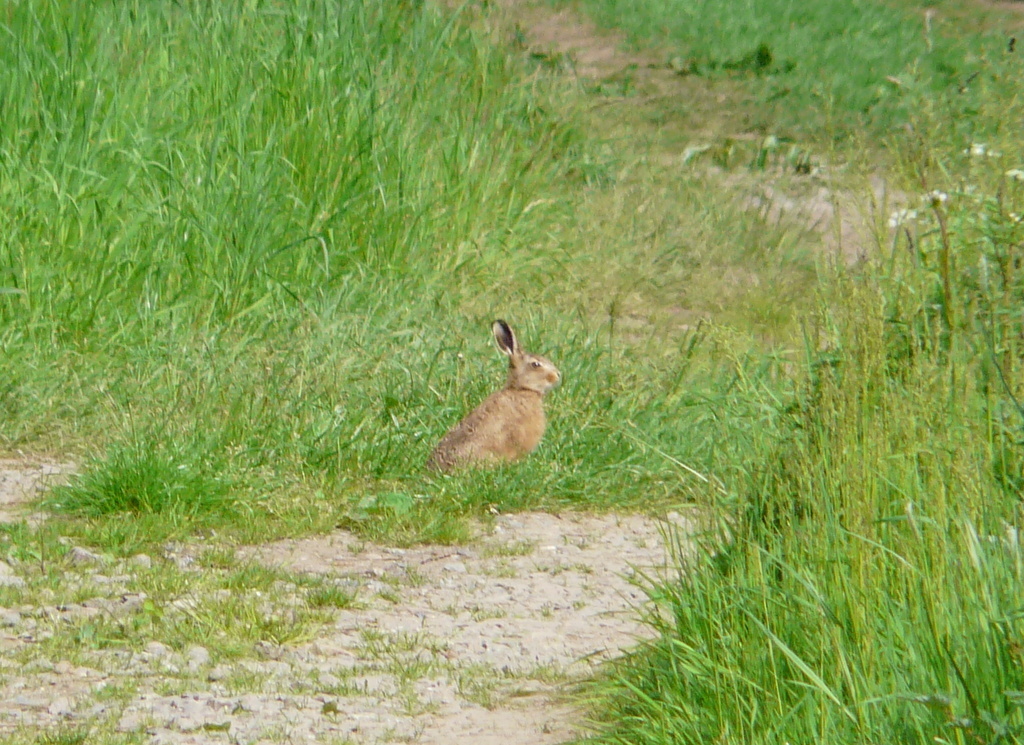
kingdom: Animalia
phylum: Chordata
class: Mammalia
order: Lagomorpha
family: Leporidae
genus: Lepus
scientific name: Lepus europaeus
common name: European hare
